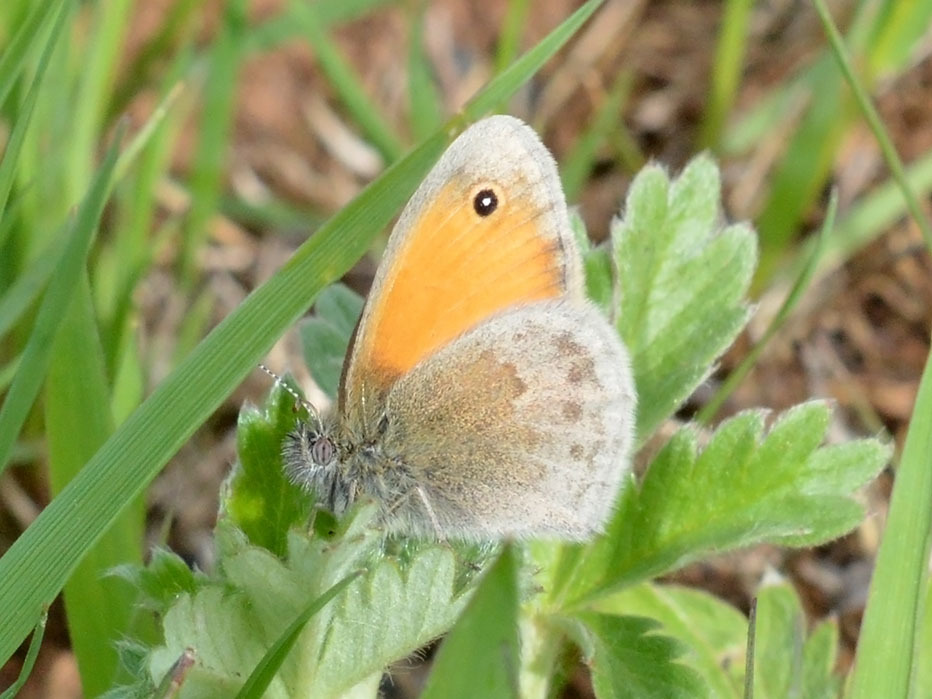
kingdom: Animalia
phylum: Arthropoda
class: Insecta
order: Lepidoptera
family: Nymphalidae
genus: Coenonympha
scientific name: Coenonympha pamphilus
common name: Small heath
